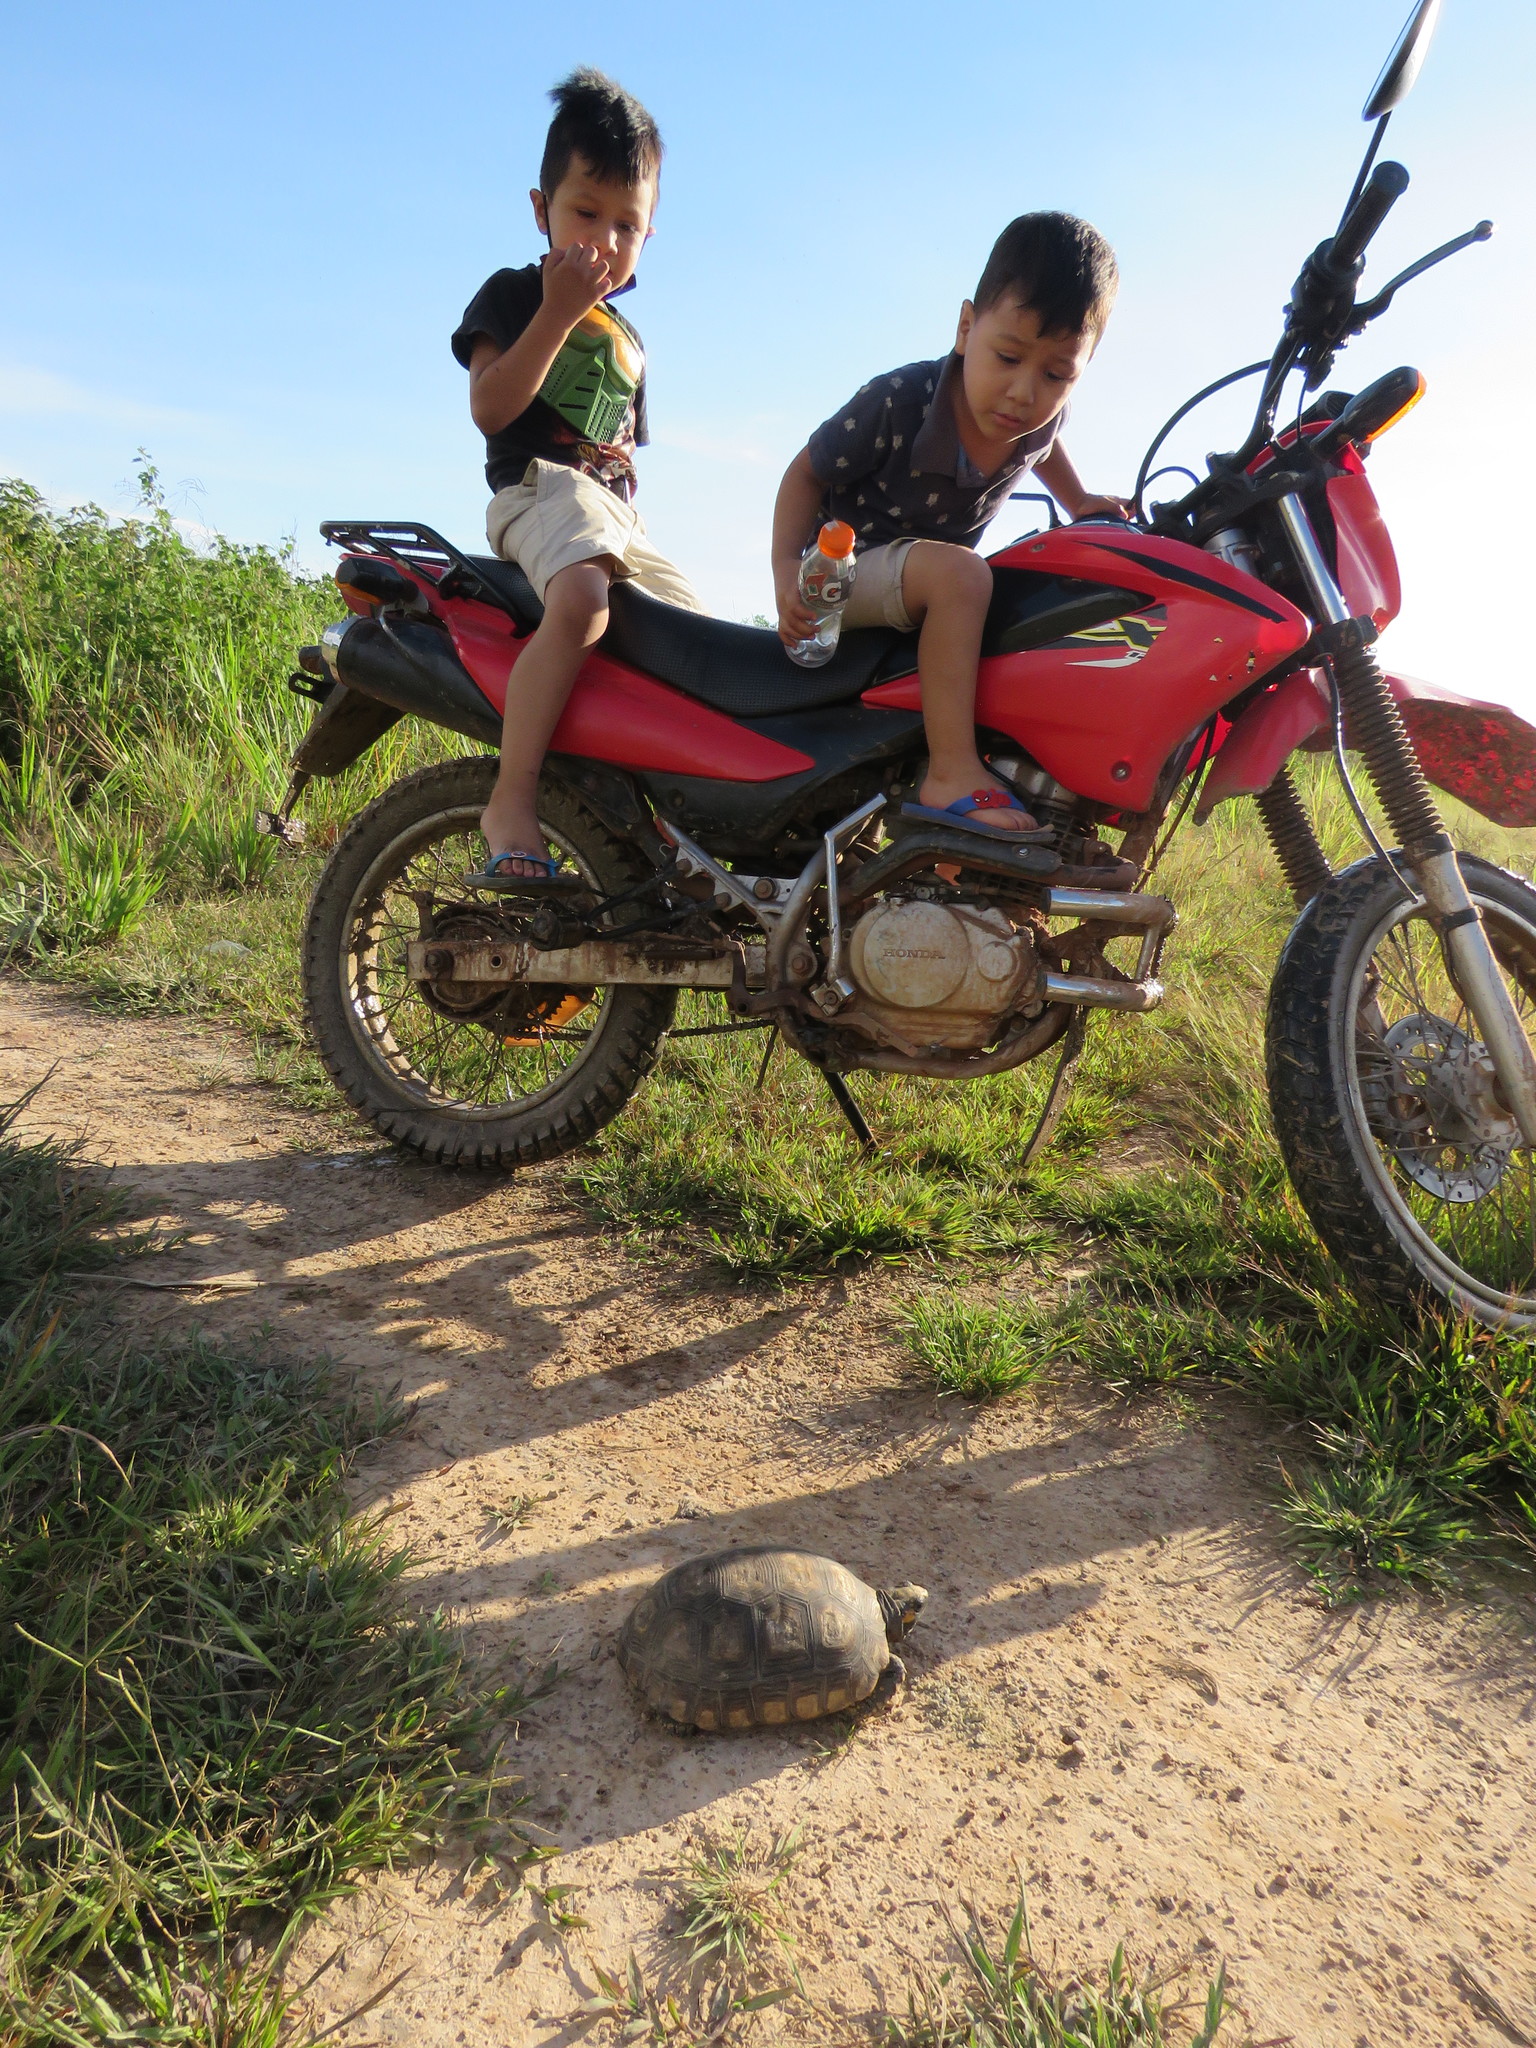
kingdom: Animalia
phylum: Chordata
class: Testudines
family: Testudinidae
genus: Chelonoidis
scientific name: Chelonoidis denticulatus
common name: Yellow-footed tortoise
